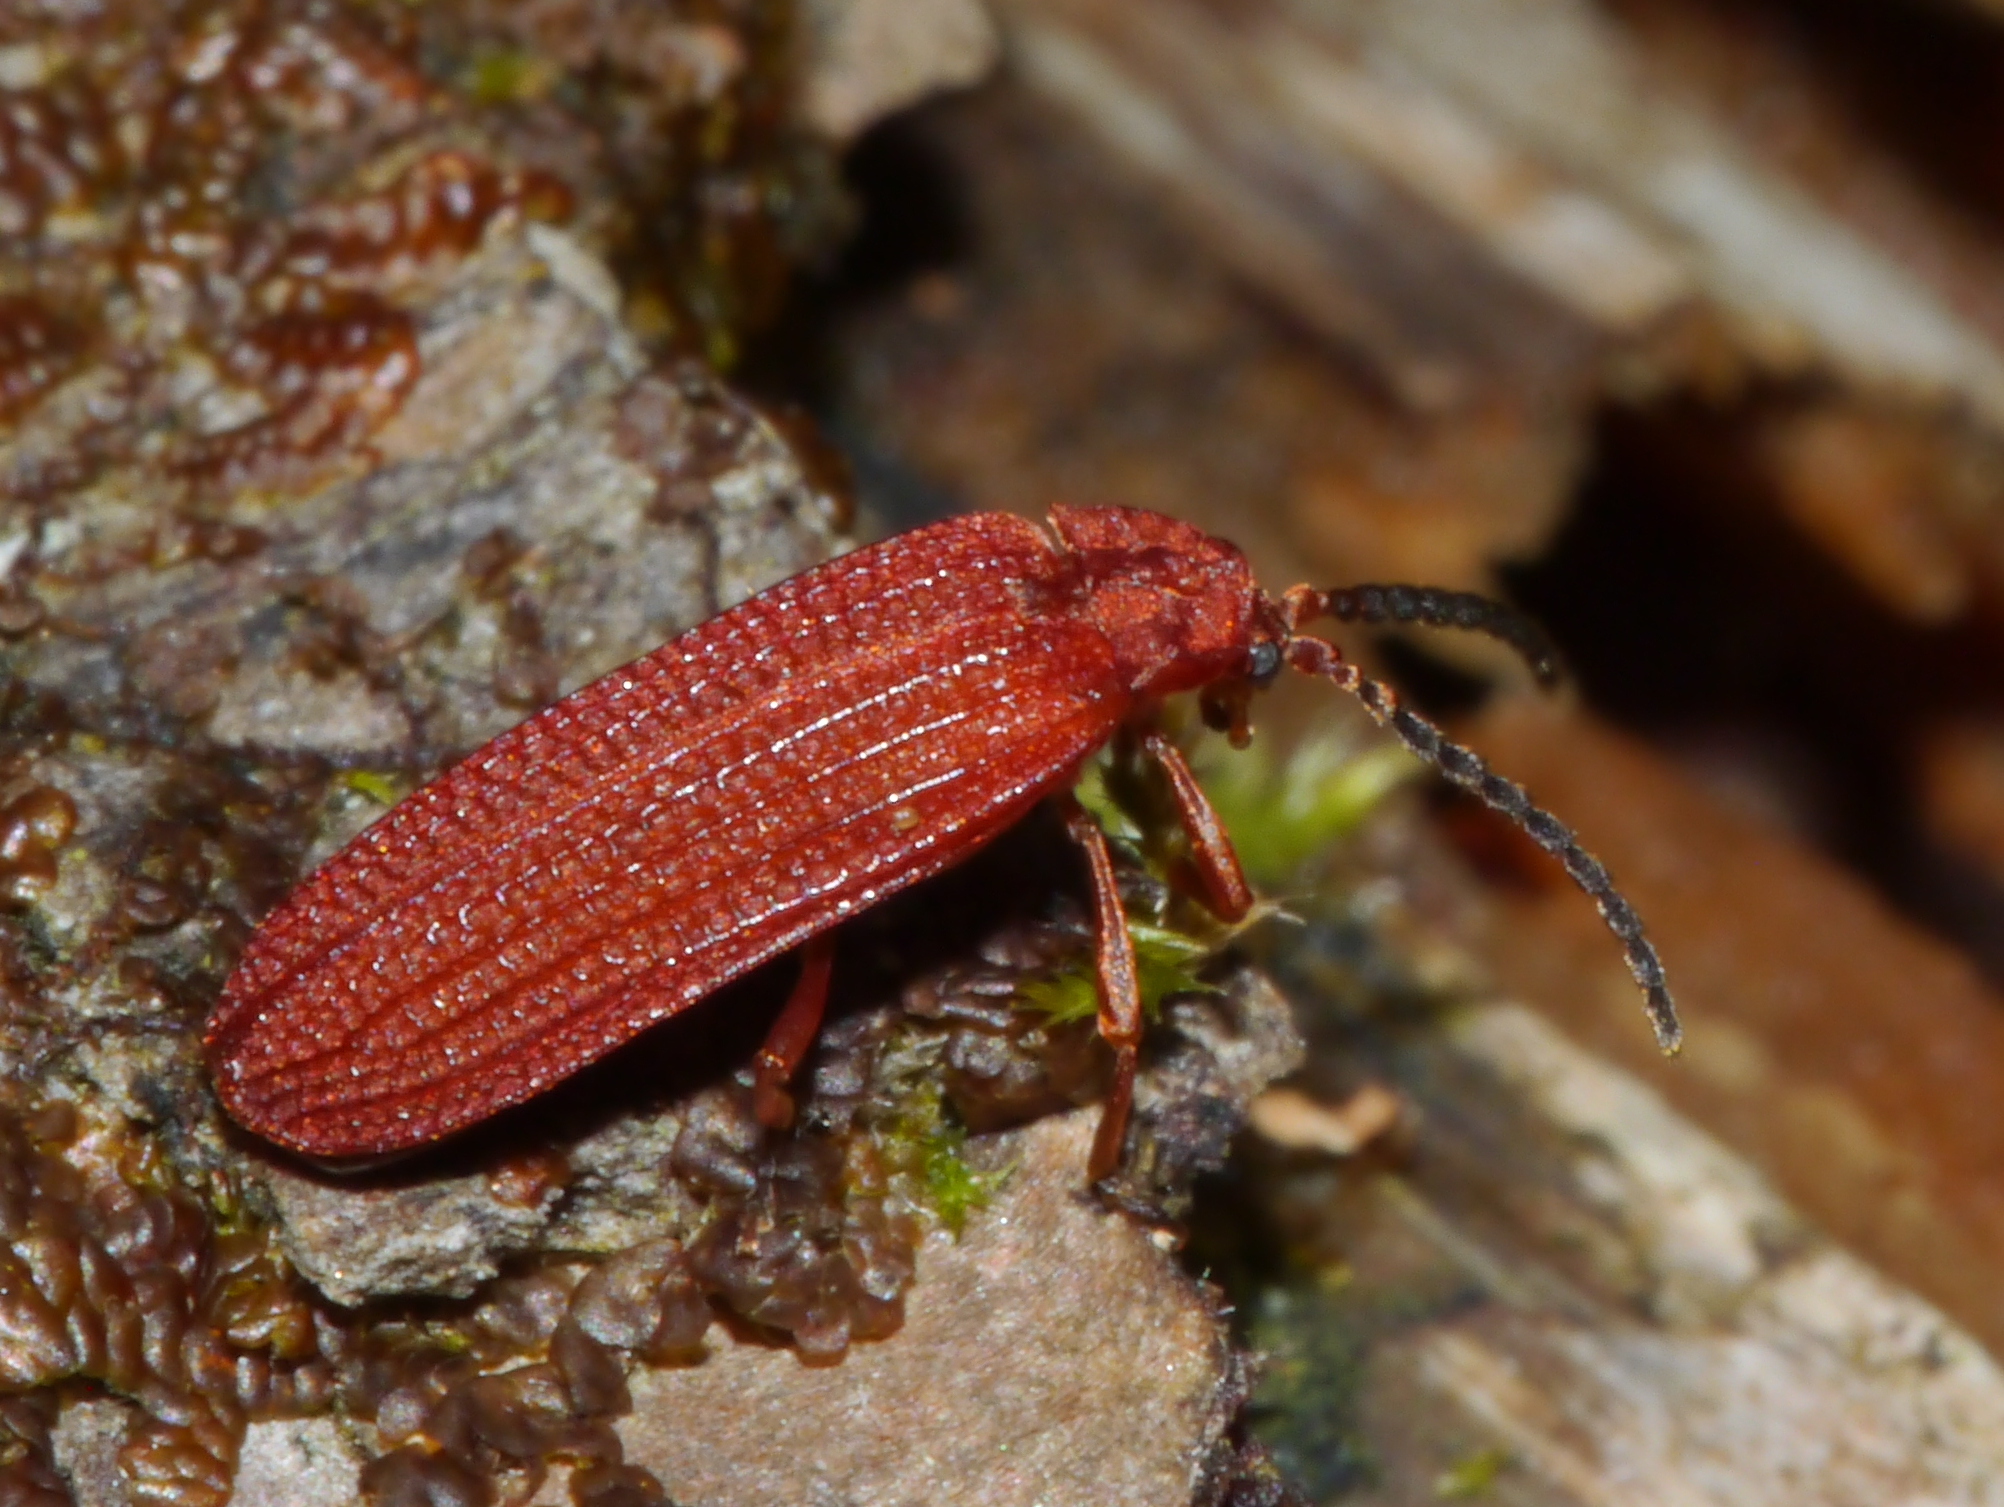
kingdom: Animalia
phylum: Arthropoda
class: Insecta
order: Coleoptera
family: Lycidae
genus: Punicealis
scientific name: Punicealis
